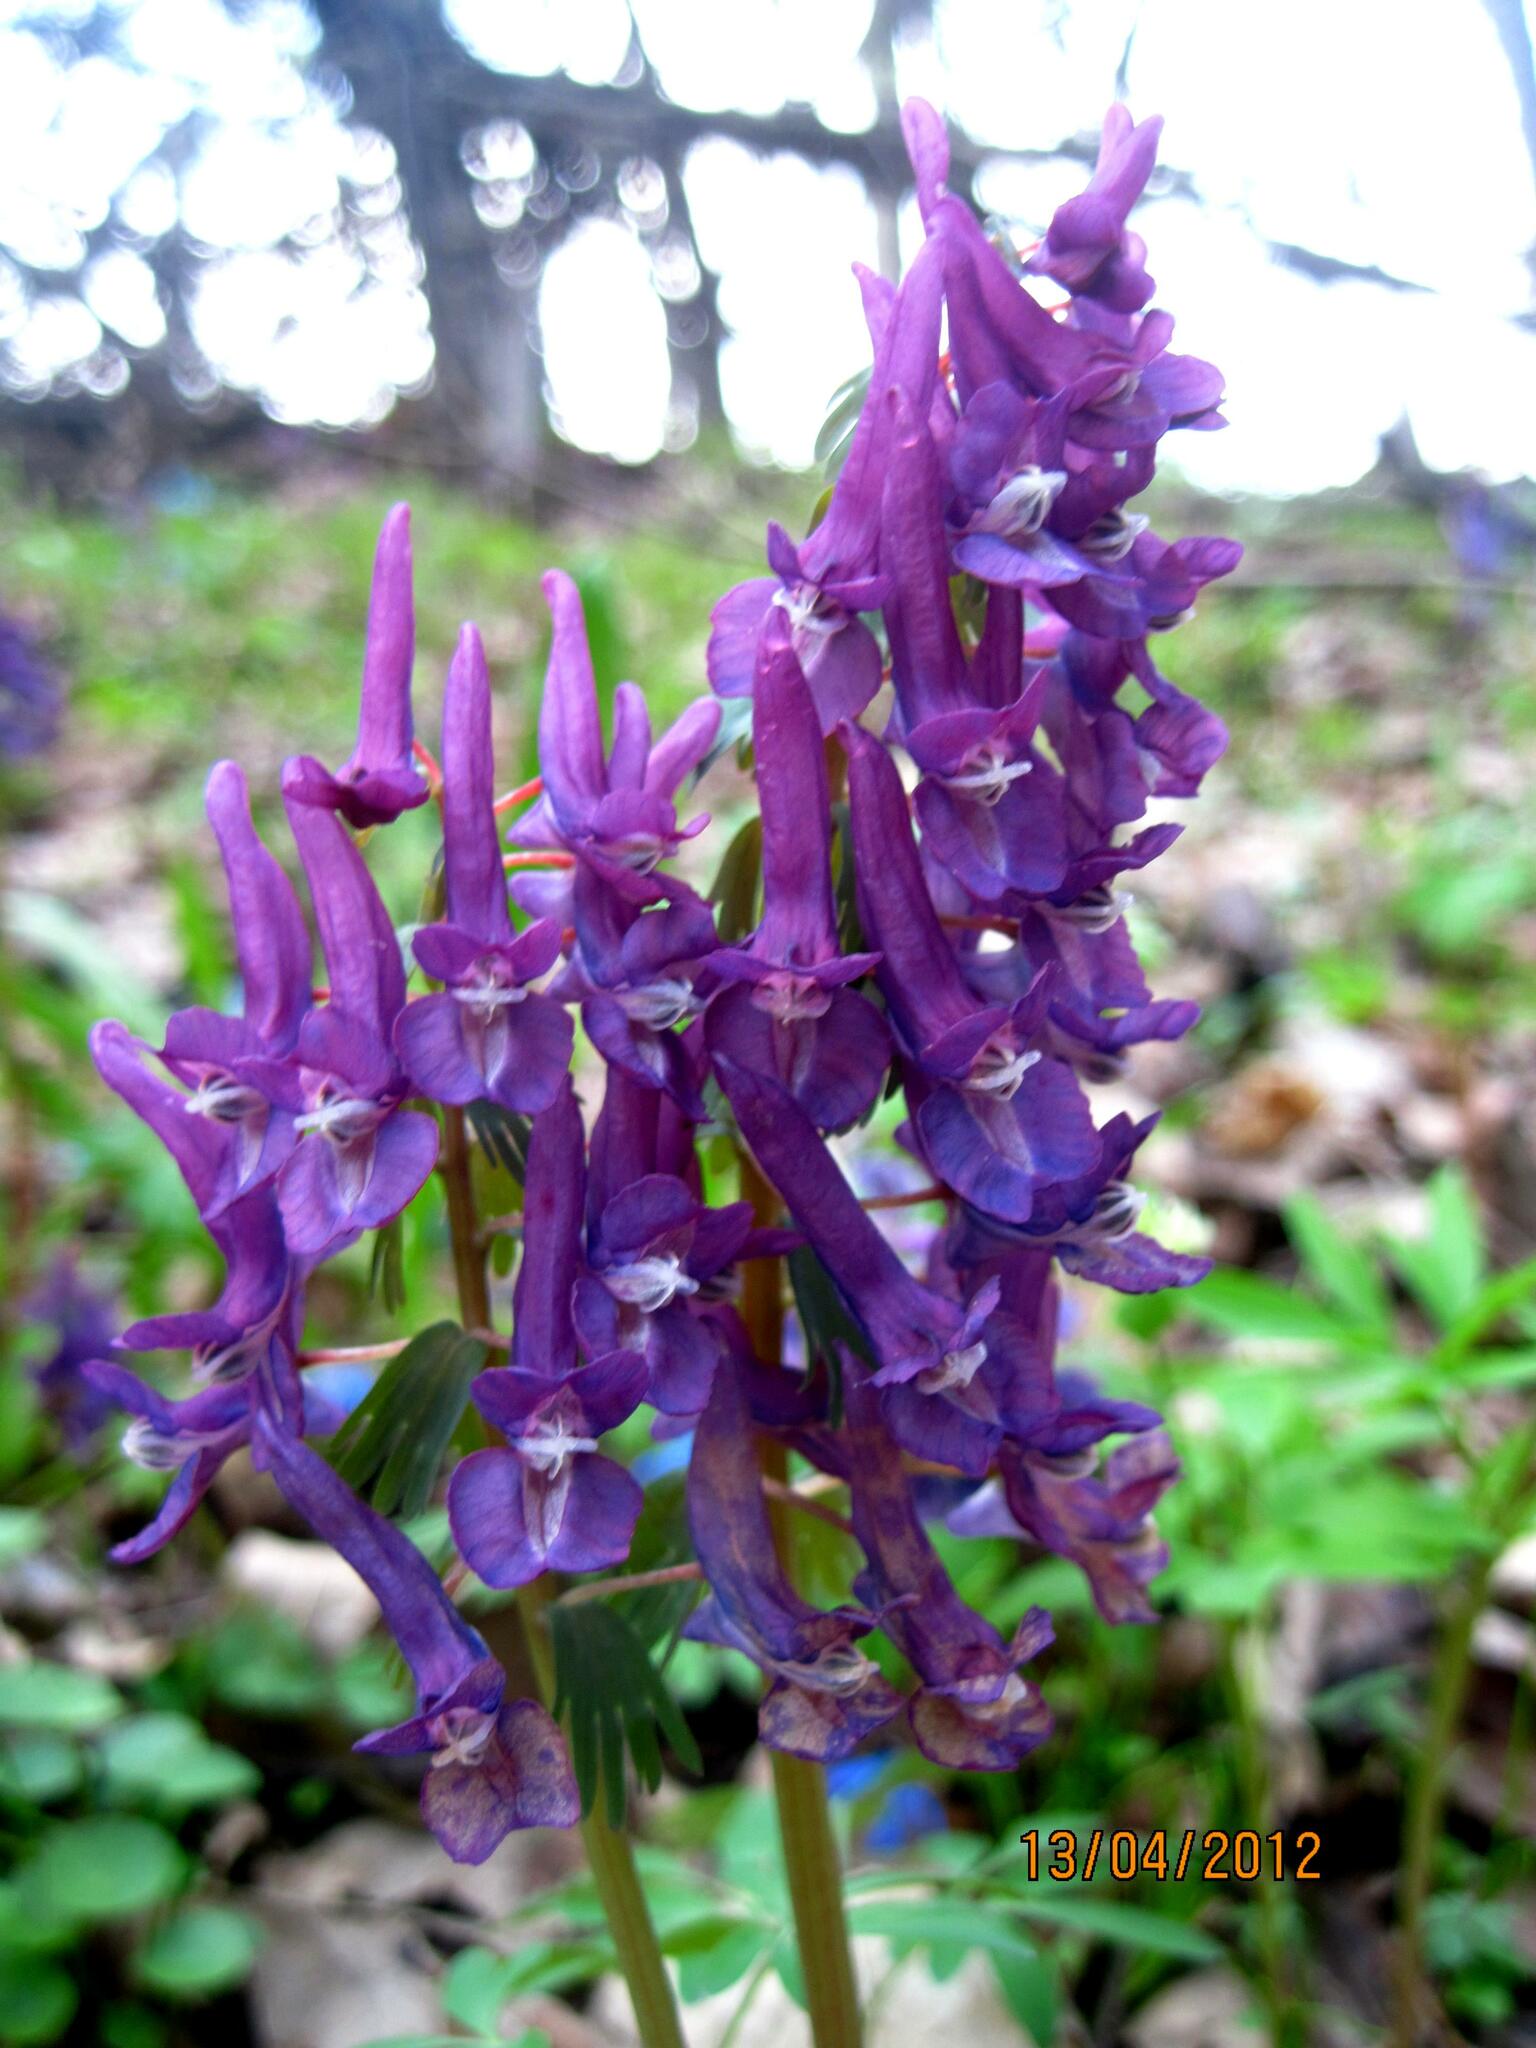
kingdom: Plantae
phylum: Tracheophyta
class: Magnoliopsida
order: Ranunculales
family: Papaveraceae
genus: Corydalis
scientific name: Corydalis solida
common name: Bird-in-a-bush
